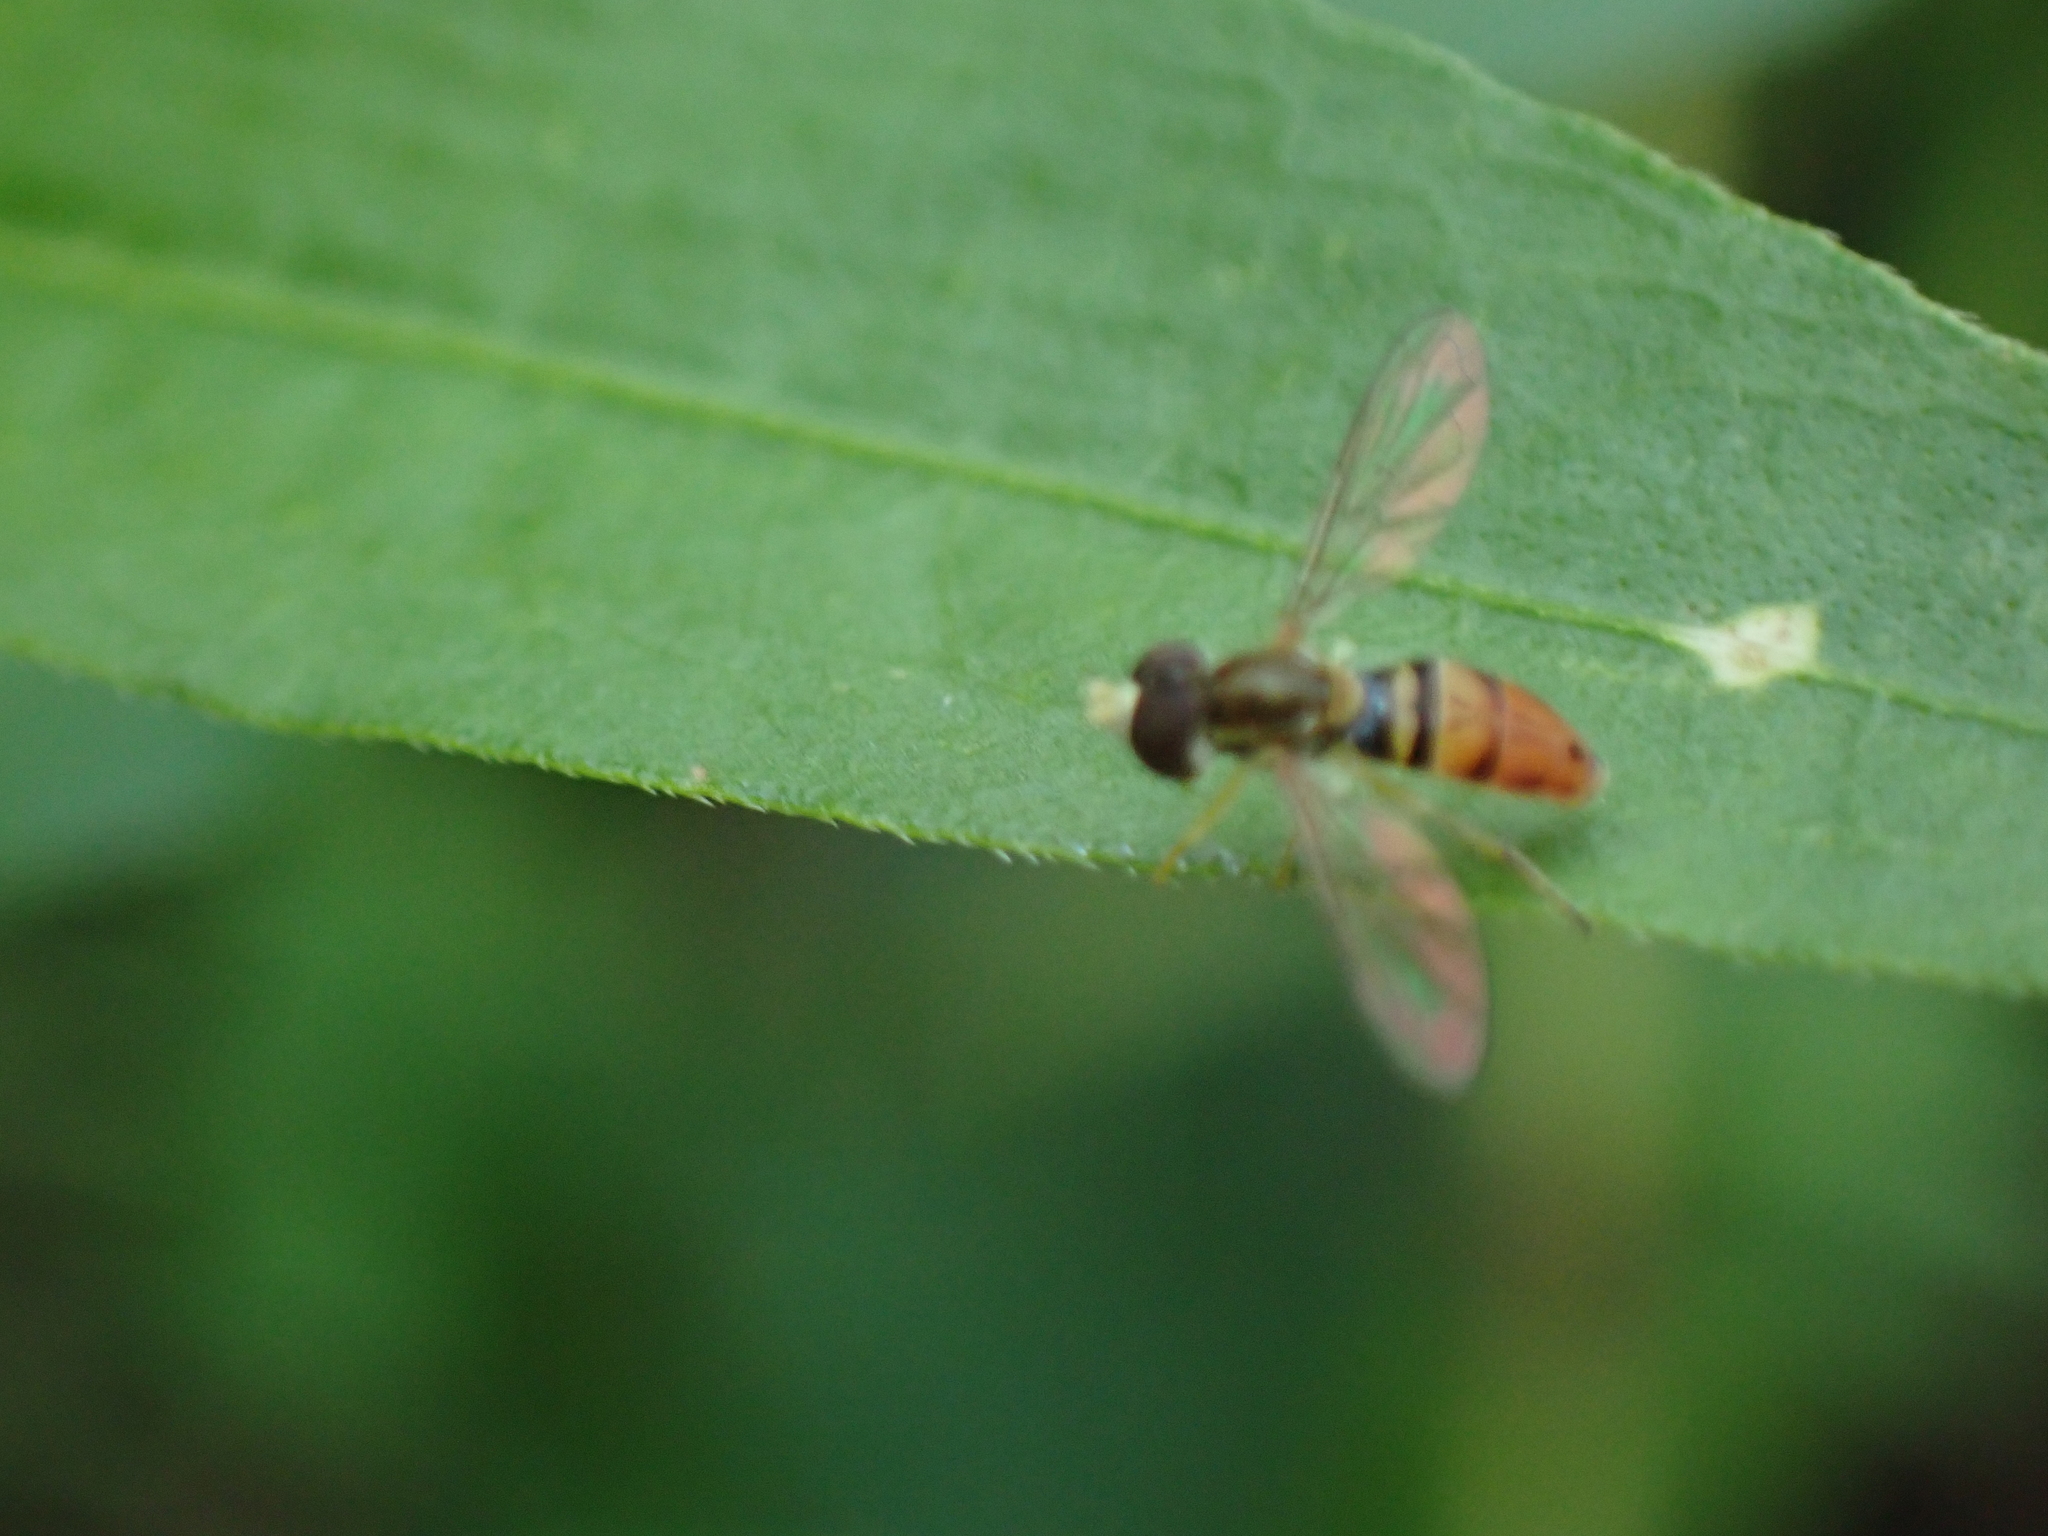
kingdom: Animalia
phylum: Arthropoda
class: Insecta
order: Diptera
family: Syrphidae
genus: Toxomerus
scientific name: Toxomerus marginatus
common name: Syrphid fly
